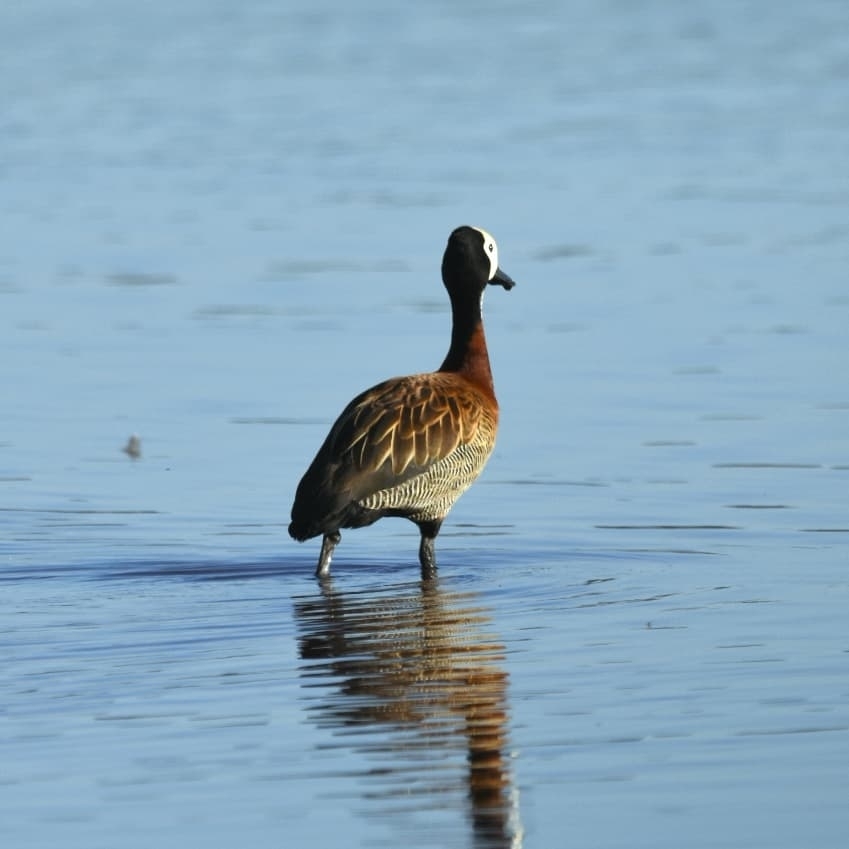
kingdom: Animalia
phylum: Chordata
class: Aves
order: Anseriformes
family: Anatidae
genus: Dendrocygna
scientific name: Dendrocygna viduata
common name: White-faced whistling duck
